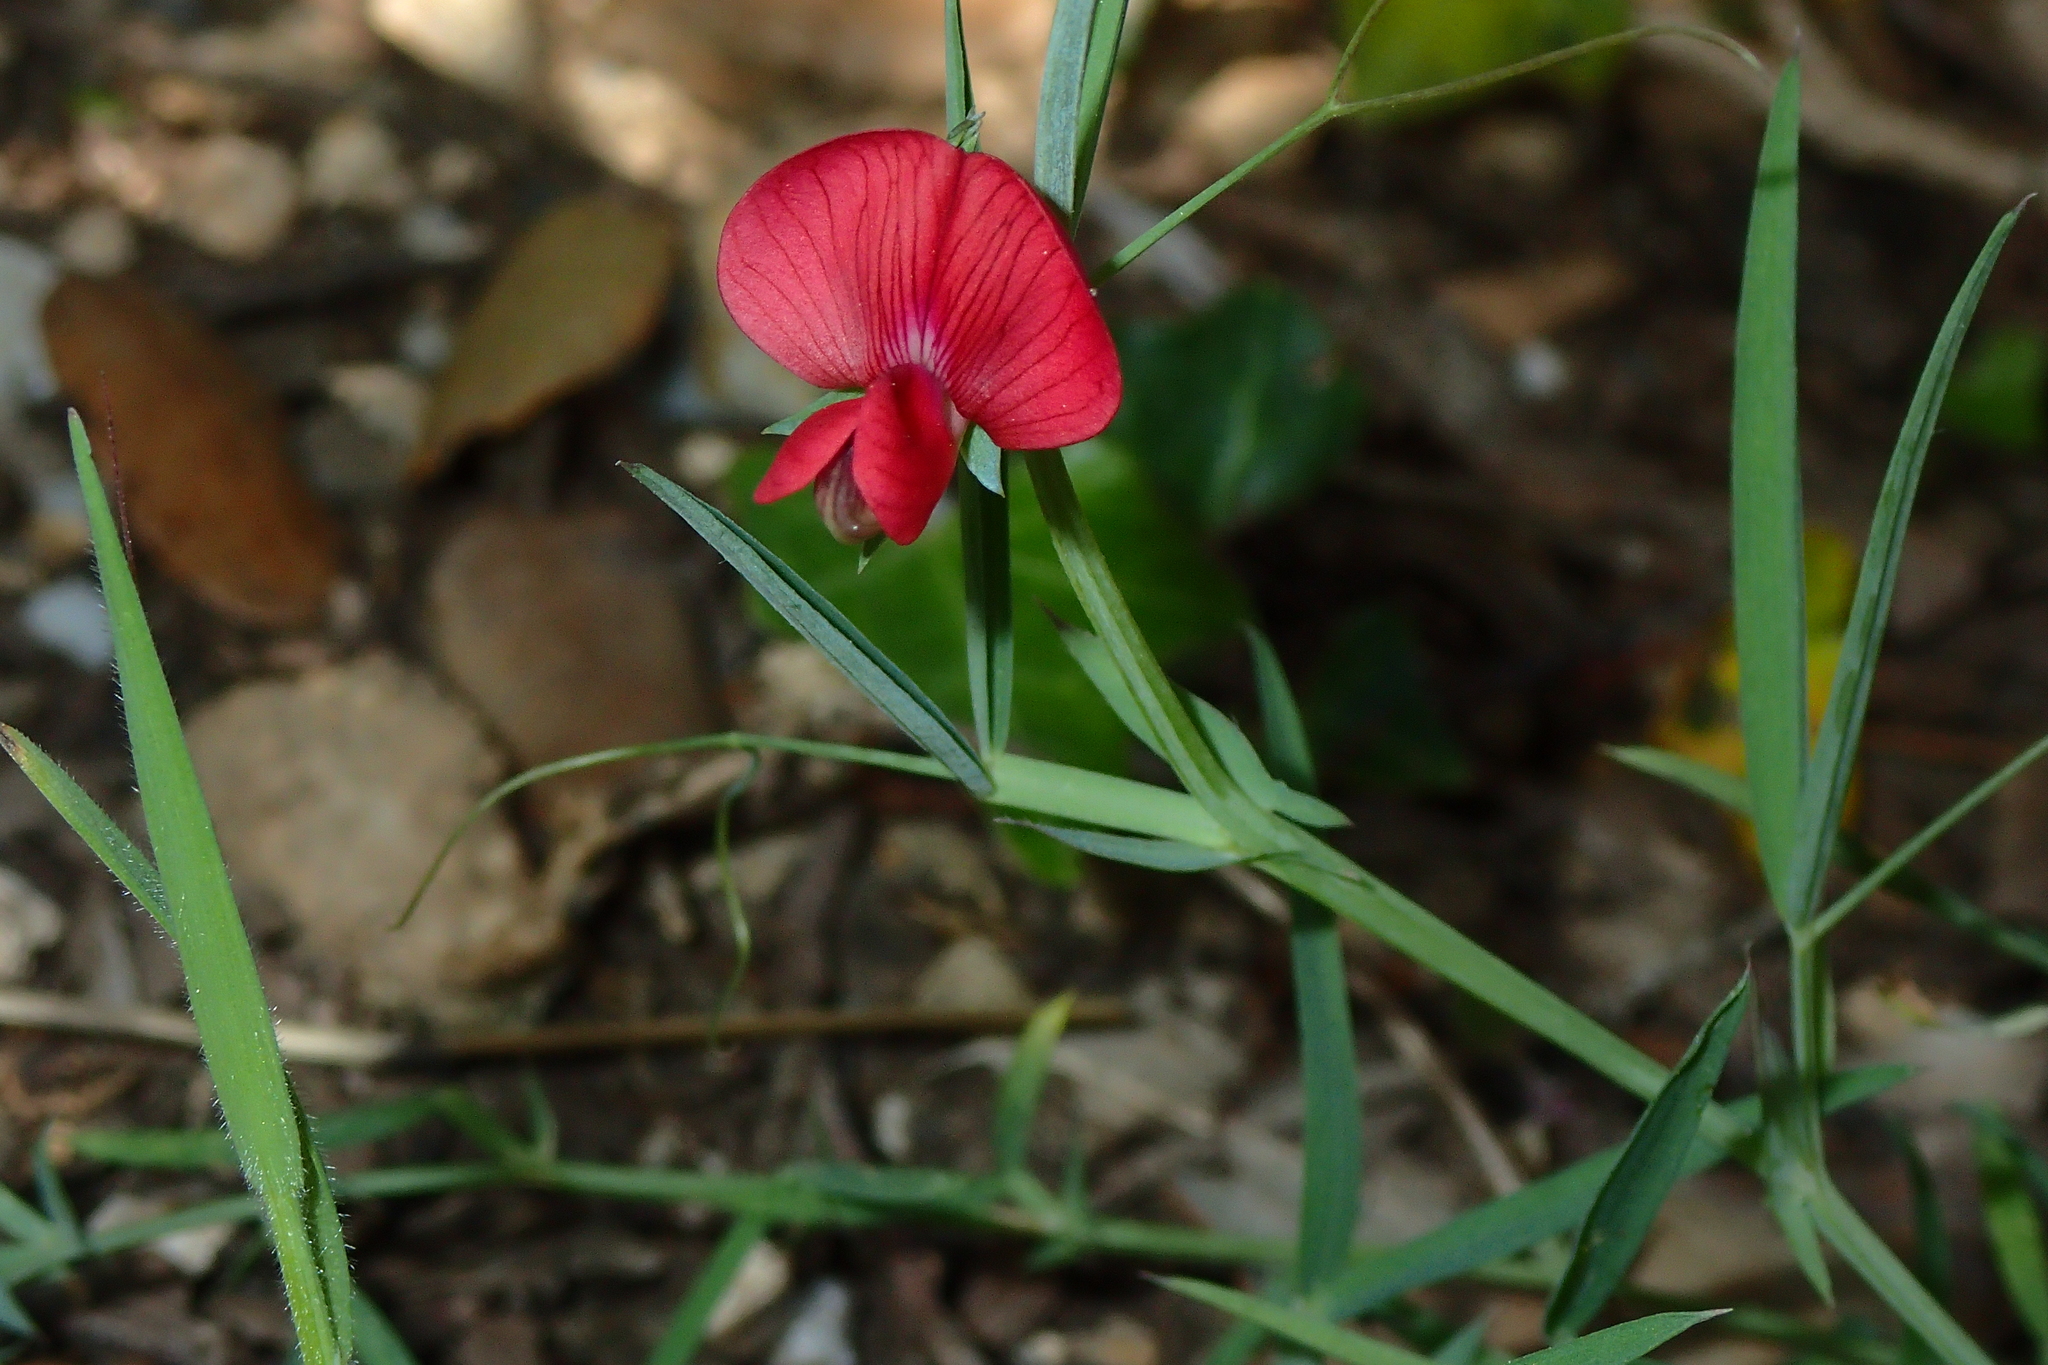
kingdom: Plantae
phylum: Tracheophyta
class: Magnoliopsida
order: Fabales
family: Fabaceae
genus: Lathyrus
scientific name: Lathyrus cicera
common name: Red vetchling
